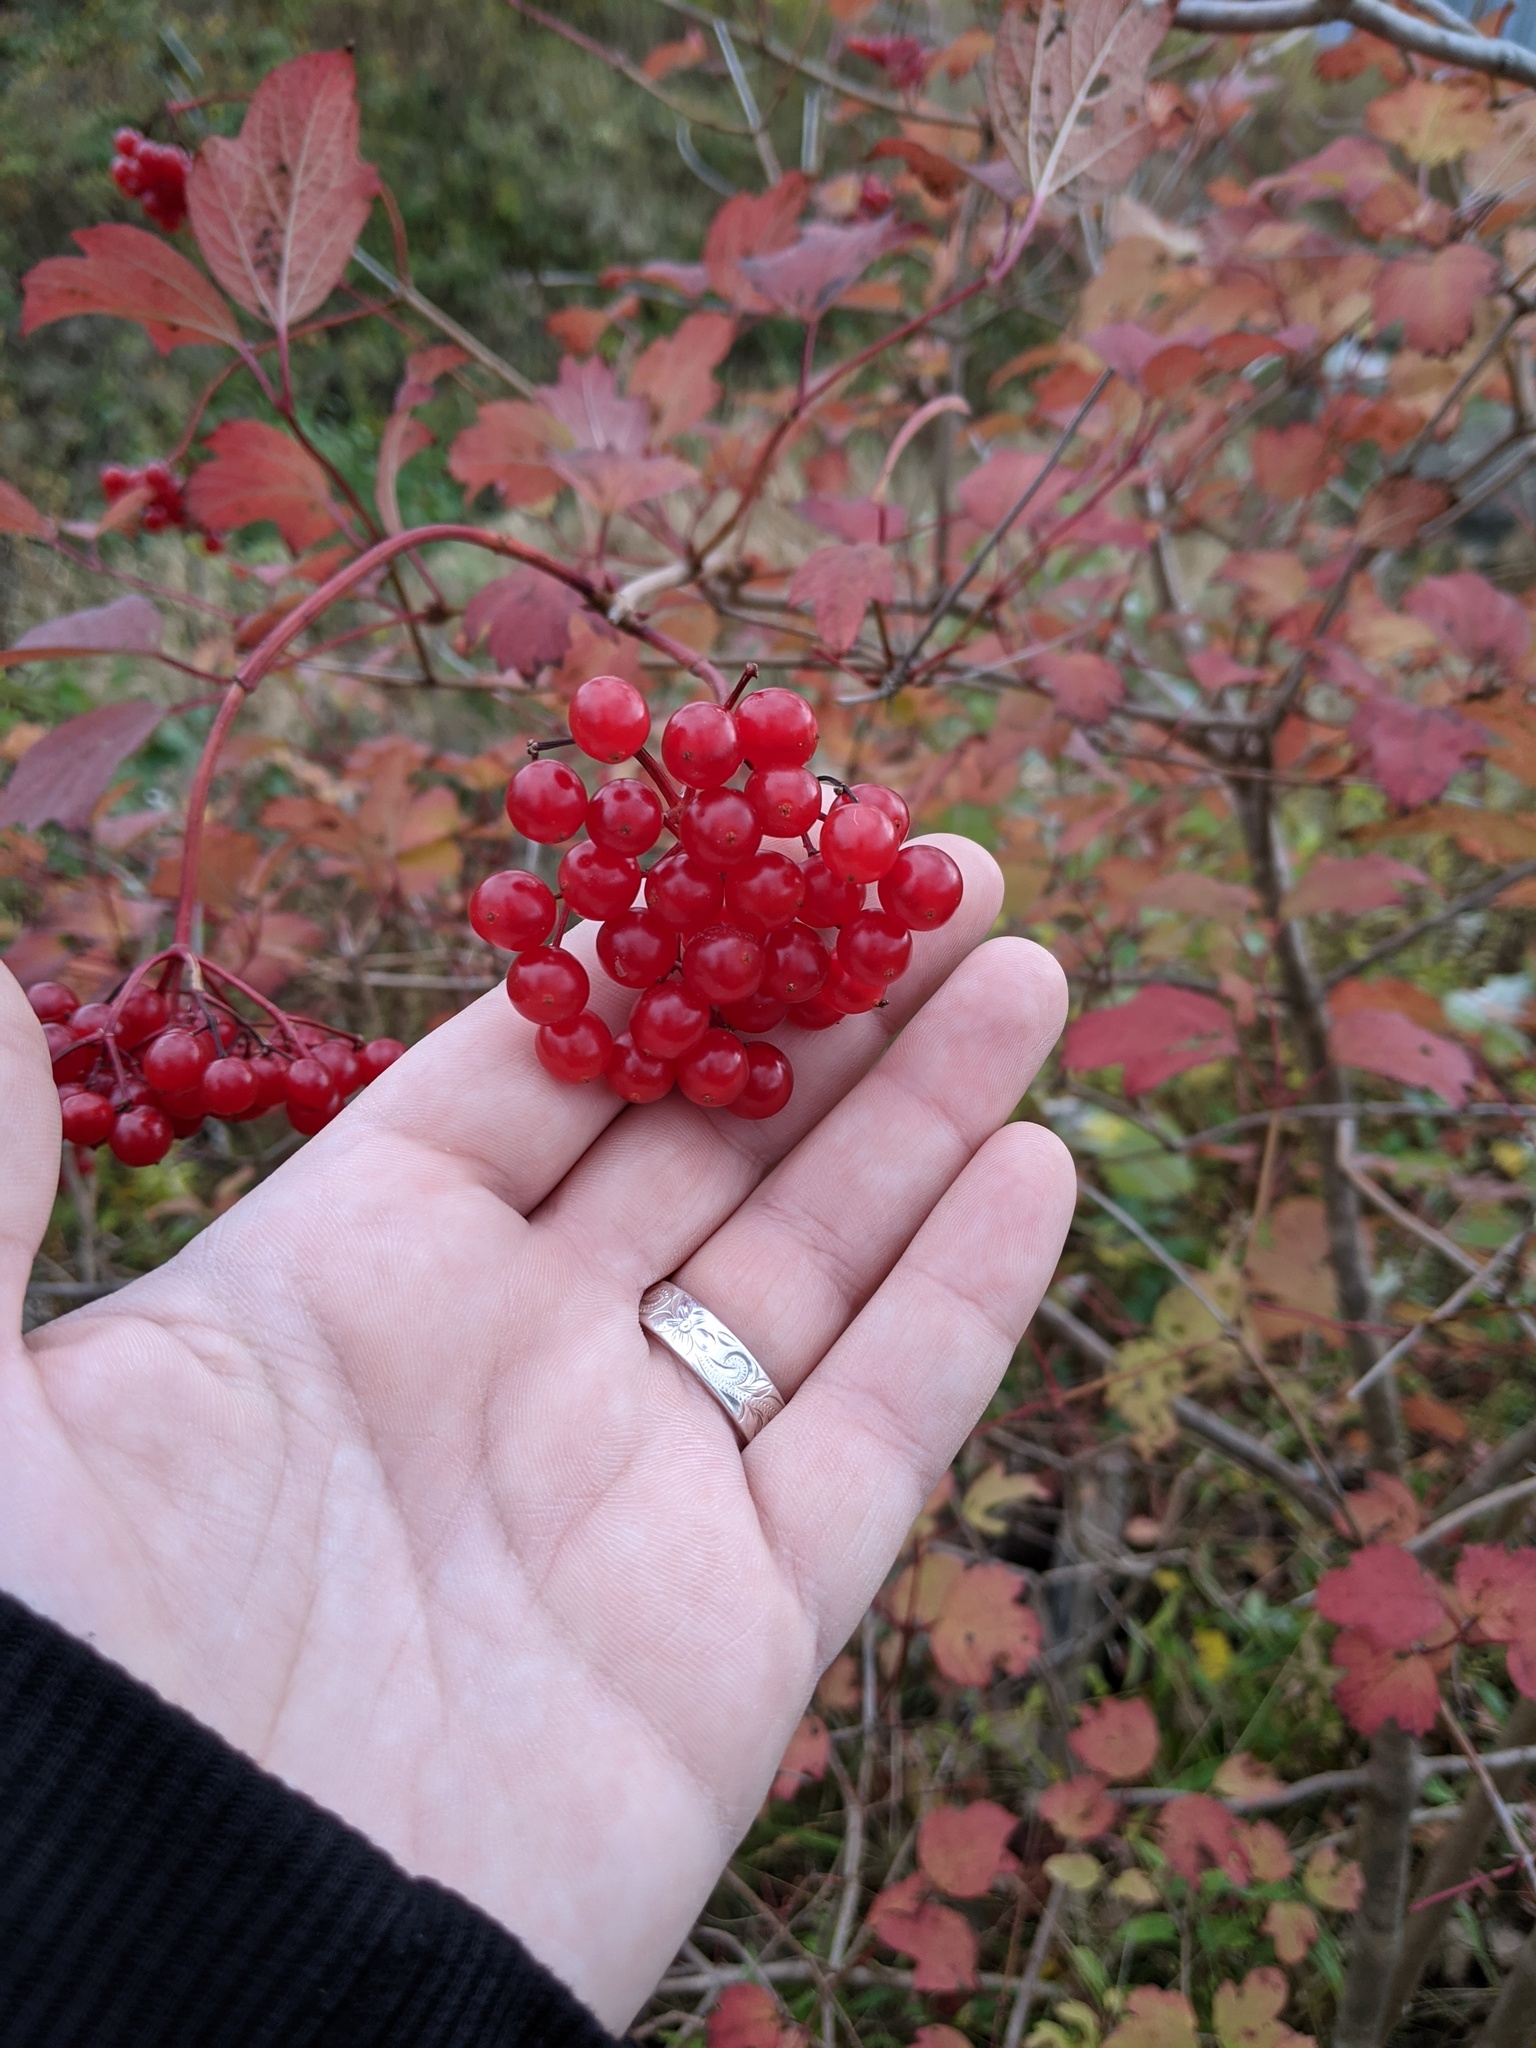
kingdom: Plantae
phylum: Tracheophyta
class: Magnoliopsida
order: Dipsacales
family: Viburnaceae
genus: Viburnum
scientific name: Viburnum opulus
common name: Guelder-rose
